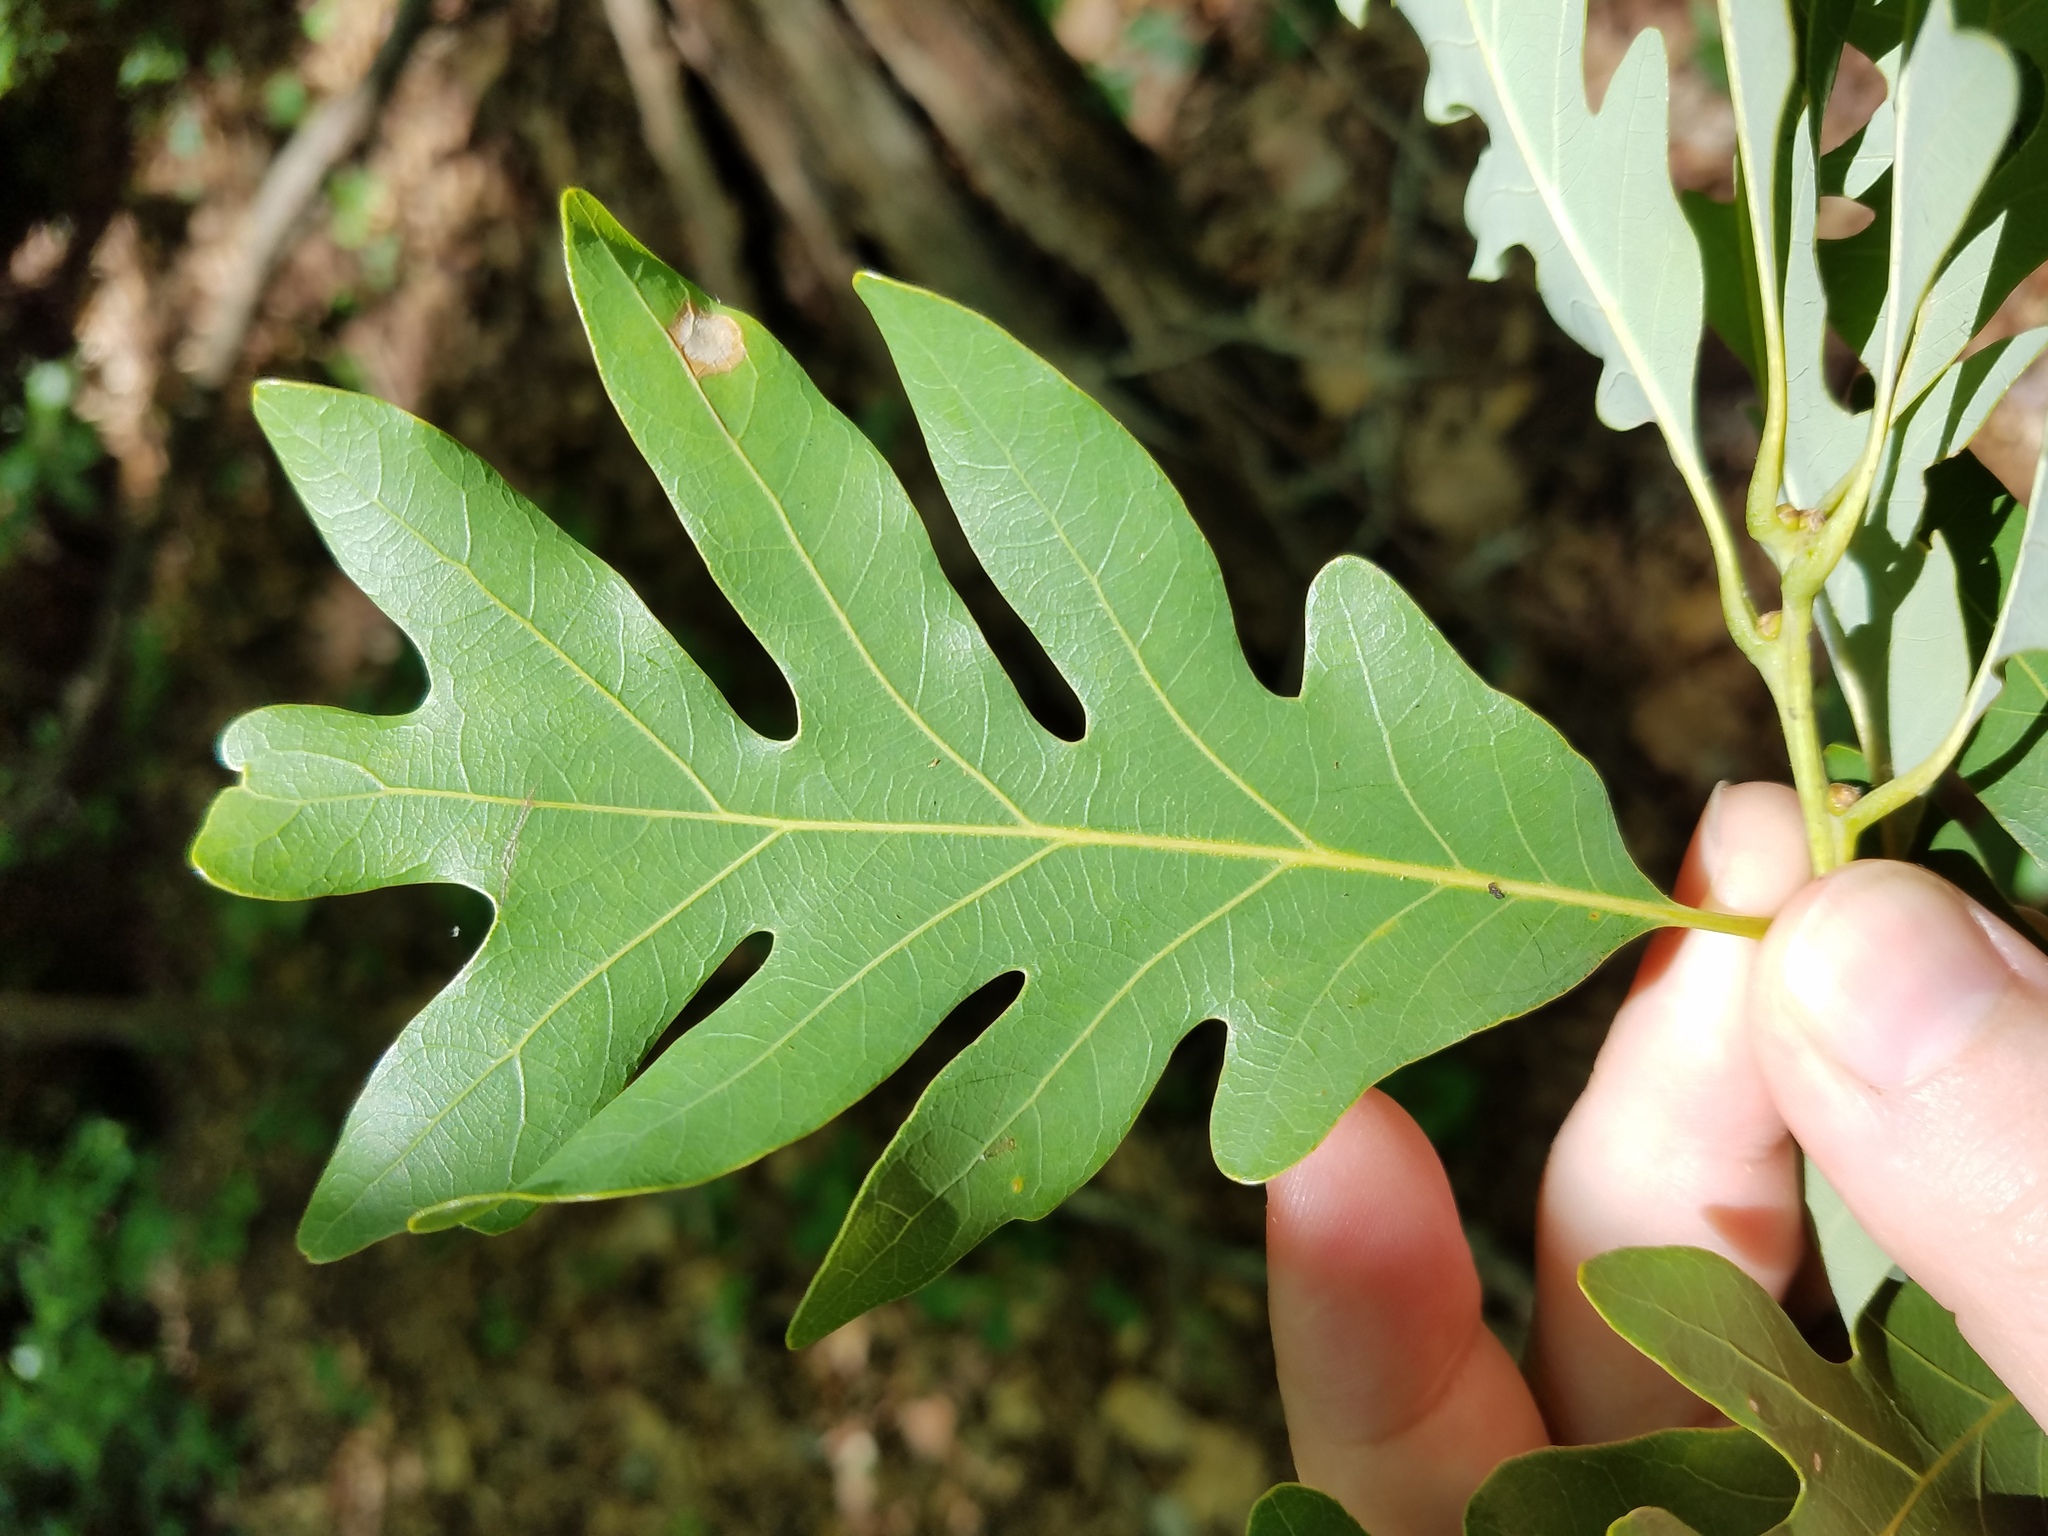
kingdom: Plantae
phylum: Tracheophyta
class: Magnoliopsida
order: Fagales
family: Fagaceae
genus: Quercus
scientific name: Quercus alba
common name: White oak
